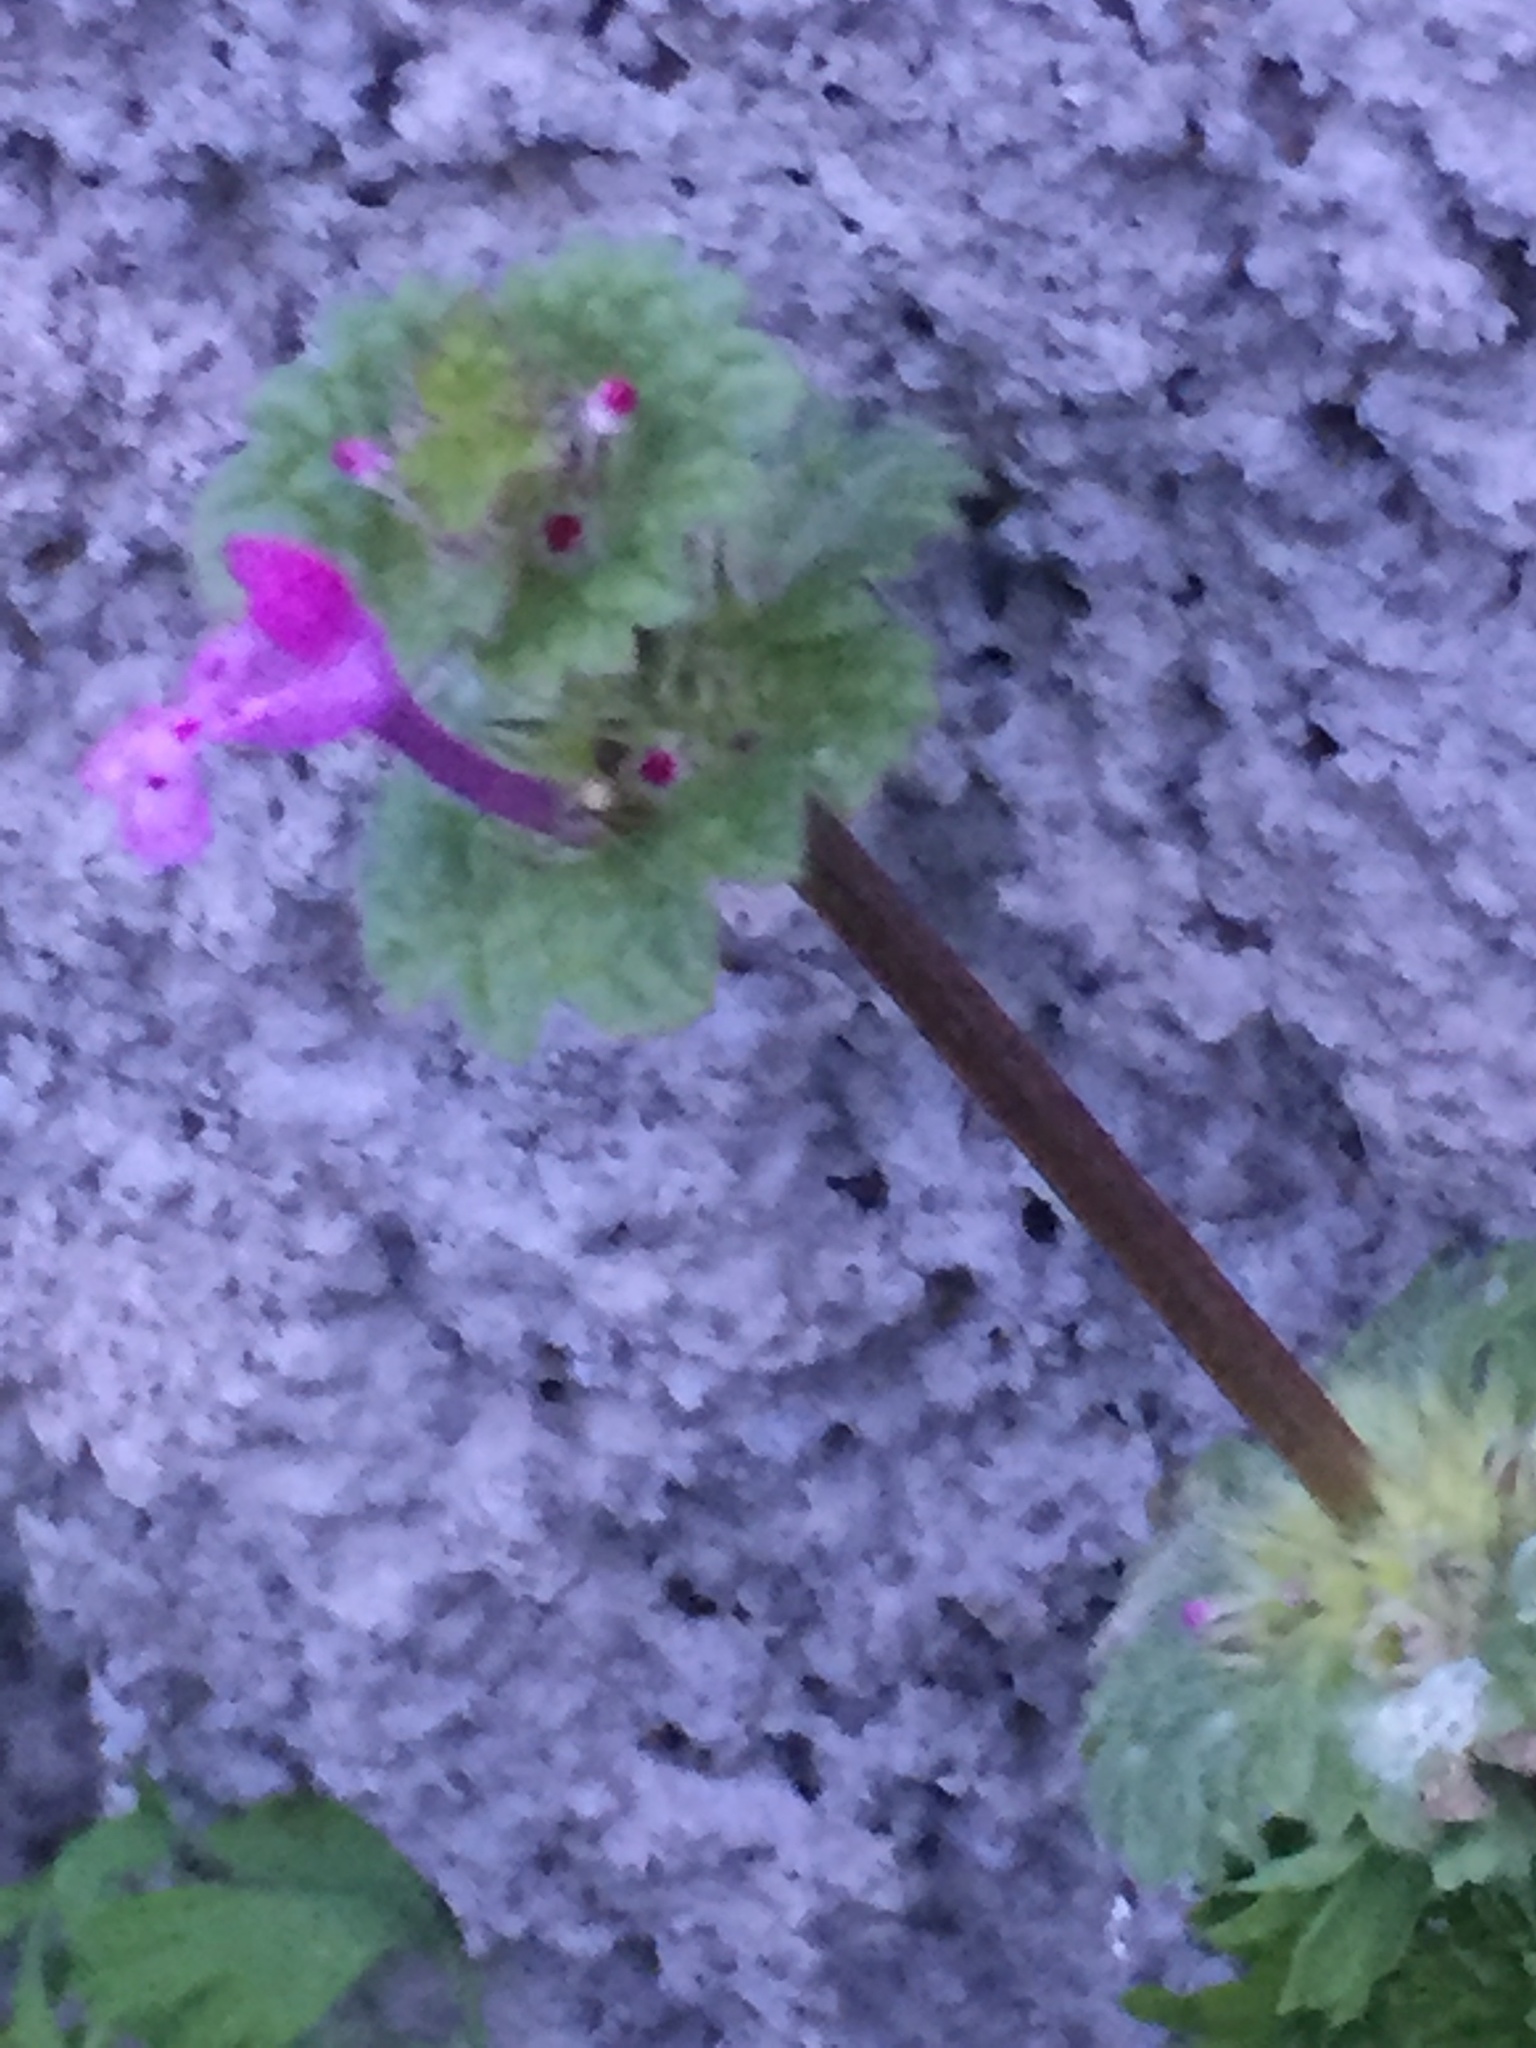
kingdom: Plantae
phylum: Tracheophyta
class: Magnoliopsida
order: Lamiales
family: Lamiaceae
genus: Lamium
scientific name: Lamium amplexicaule
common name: Henbit dead-nettle
